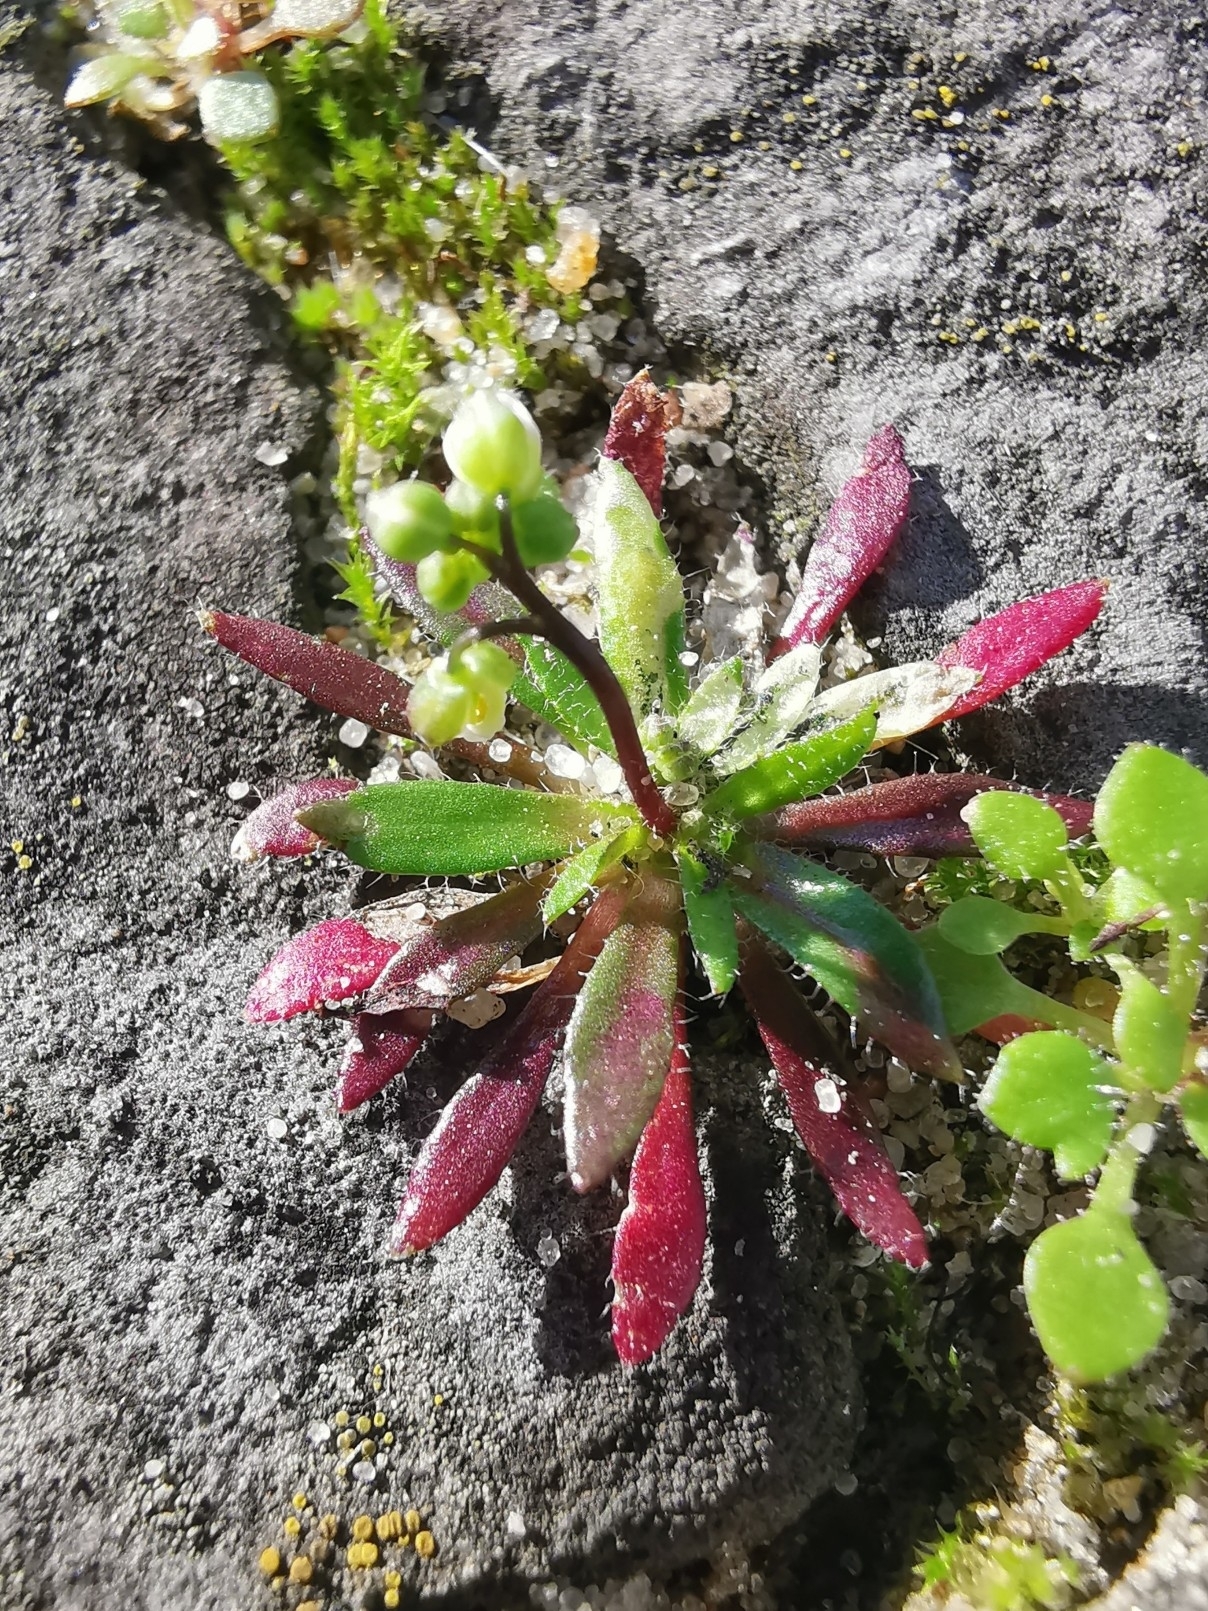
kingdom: Plantae
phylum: Tracheophyta
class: Magnoliopsida
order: Brassicales
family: Brassicaceae
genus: Draba
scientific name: Draba verna
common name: Spring draba
